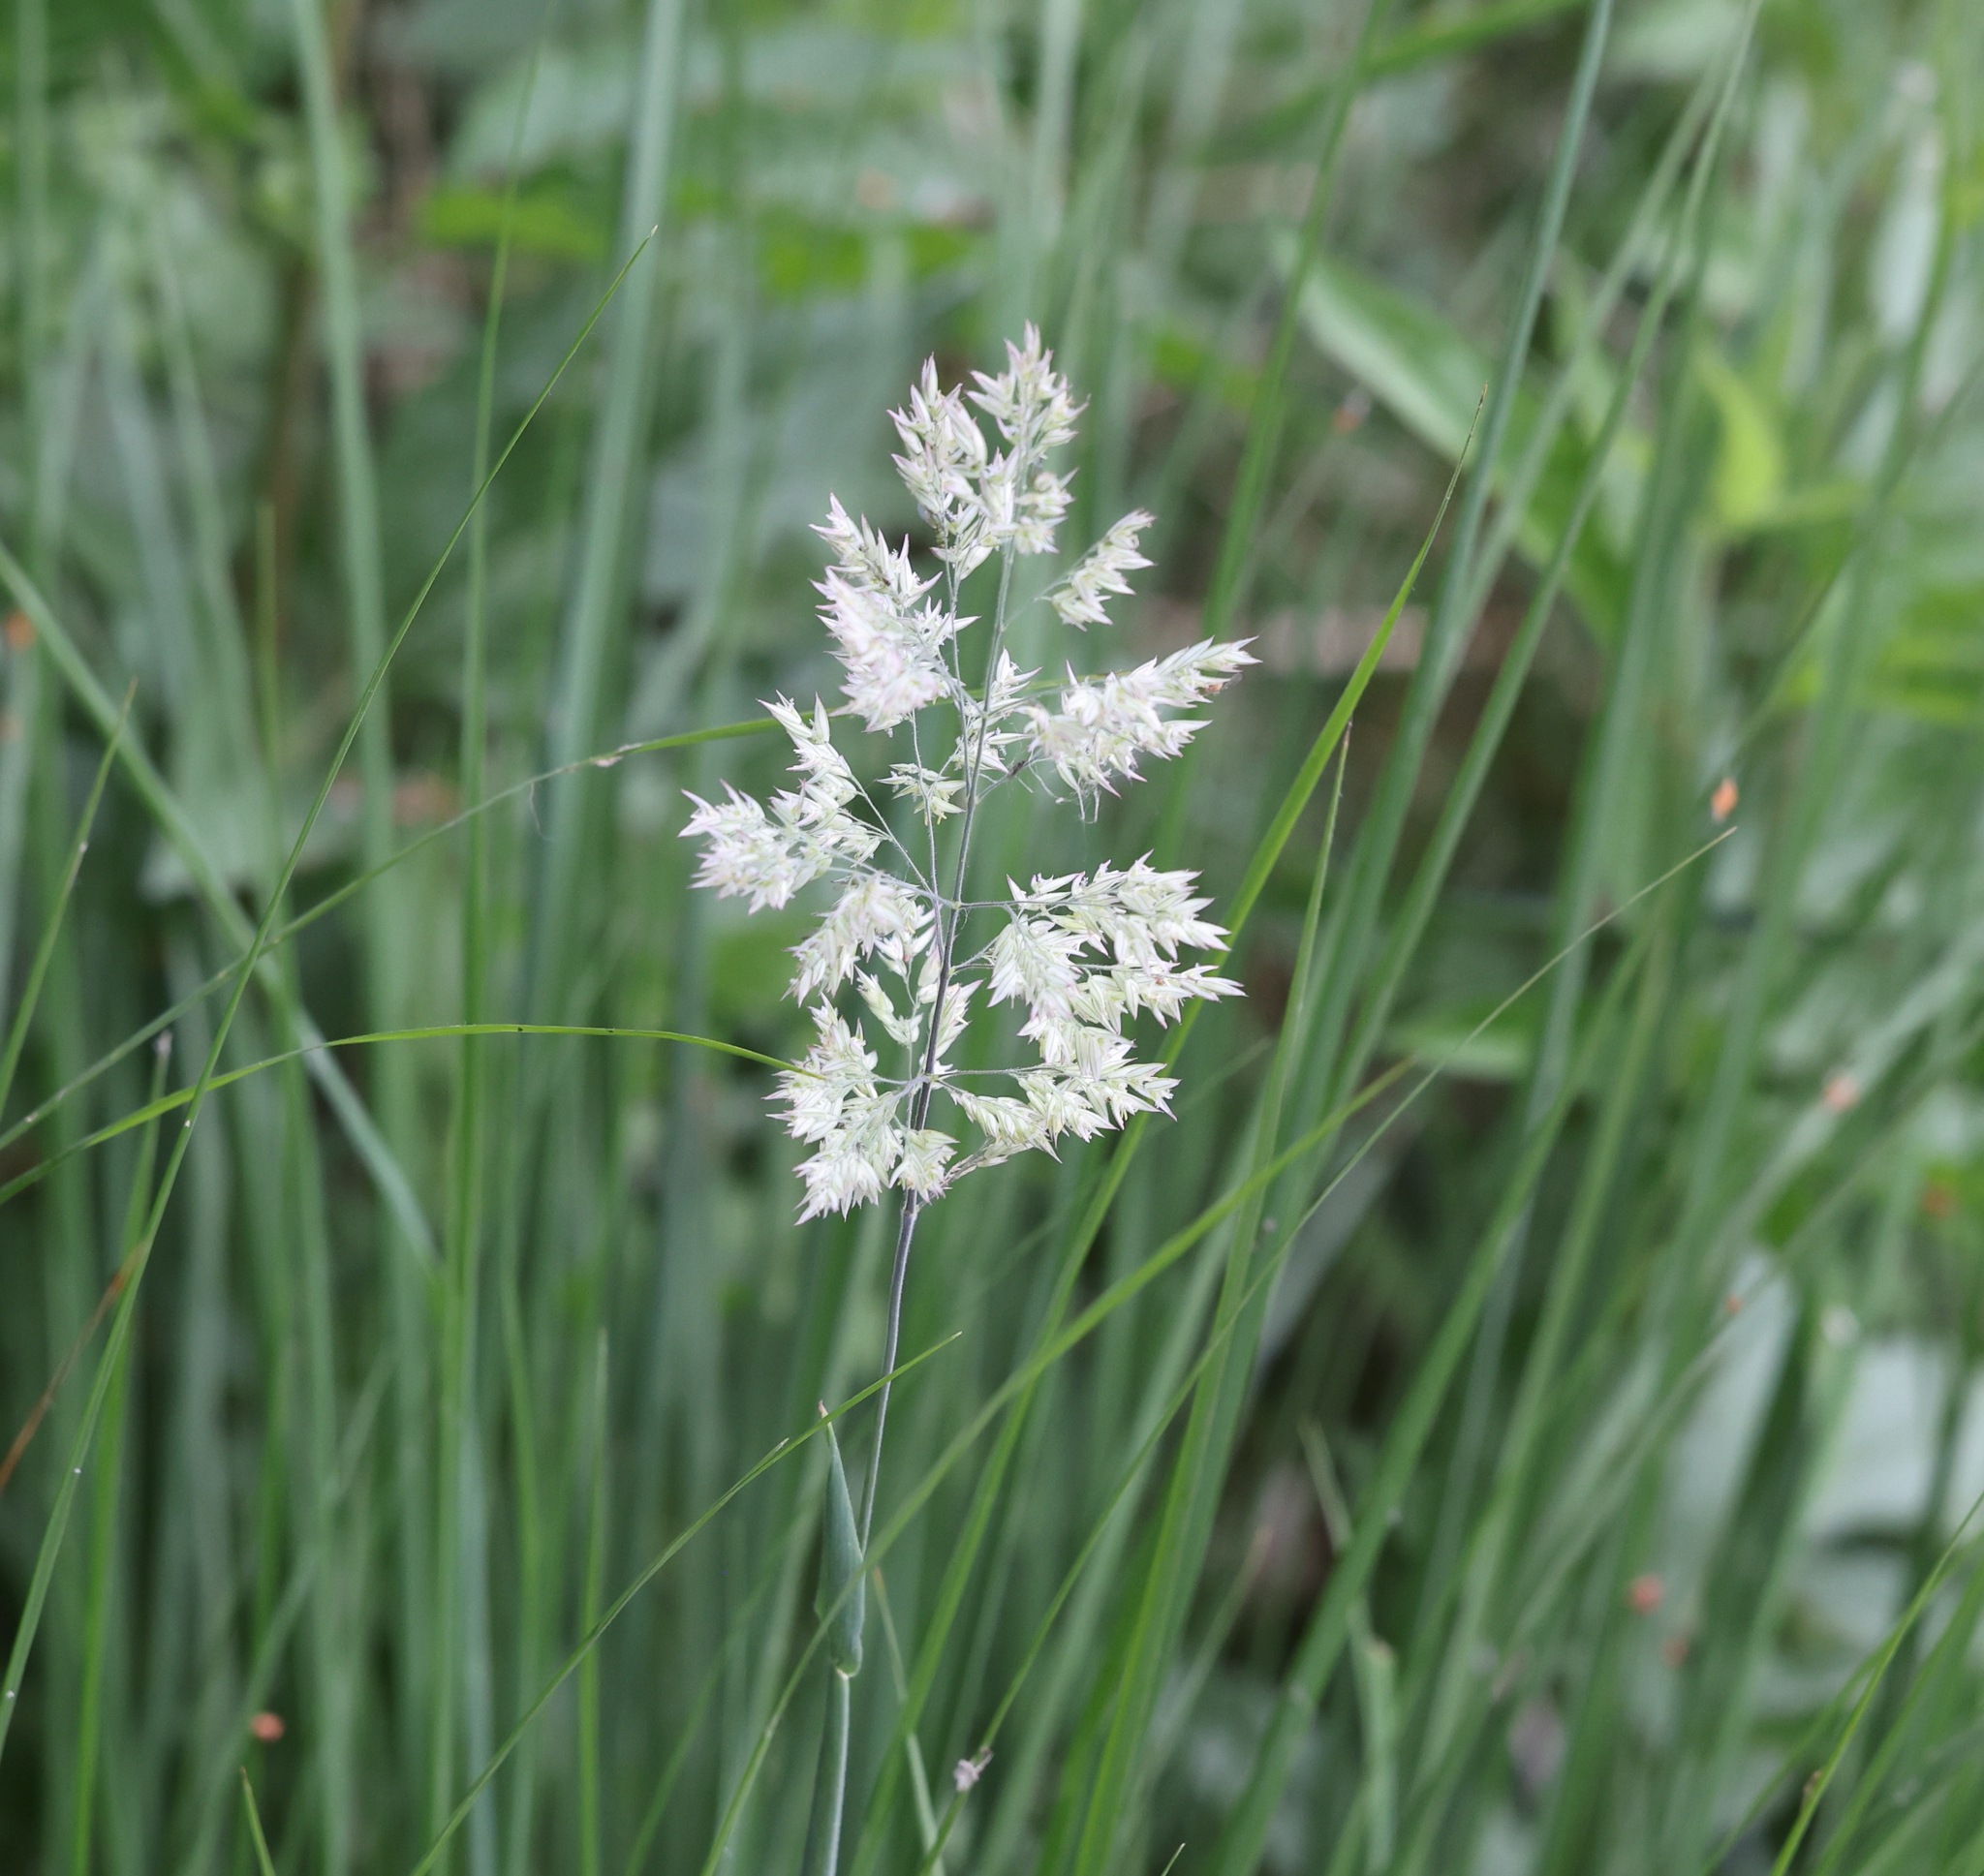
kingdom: Plantae
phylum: Tracheophyta
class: Liliopsida
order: Poales
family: Poaceae
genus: Holcus
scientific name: Holcus lanatus
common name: Yorkshire-fog
